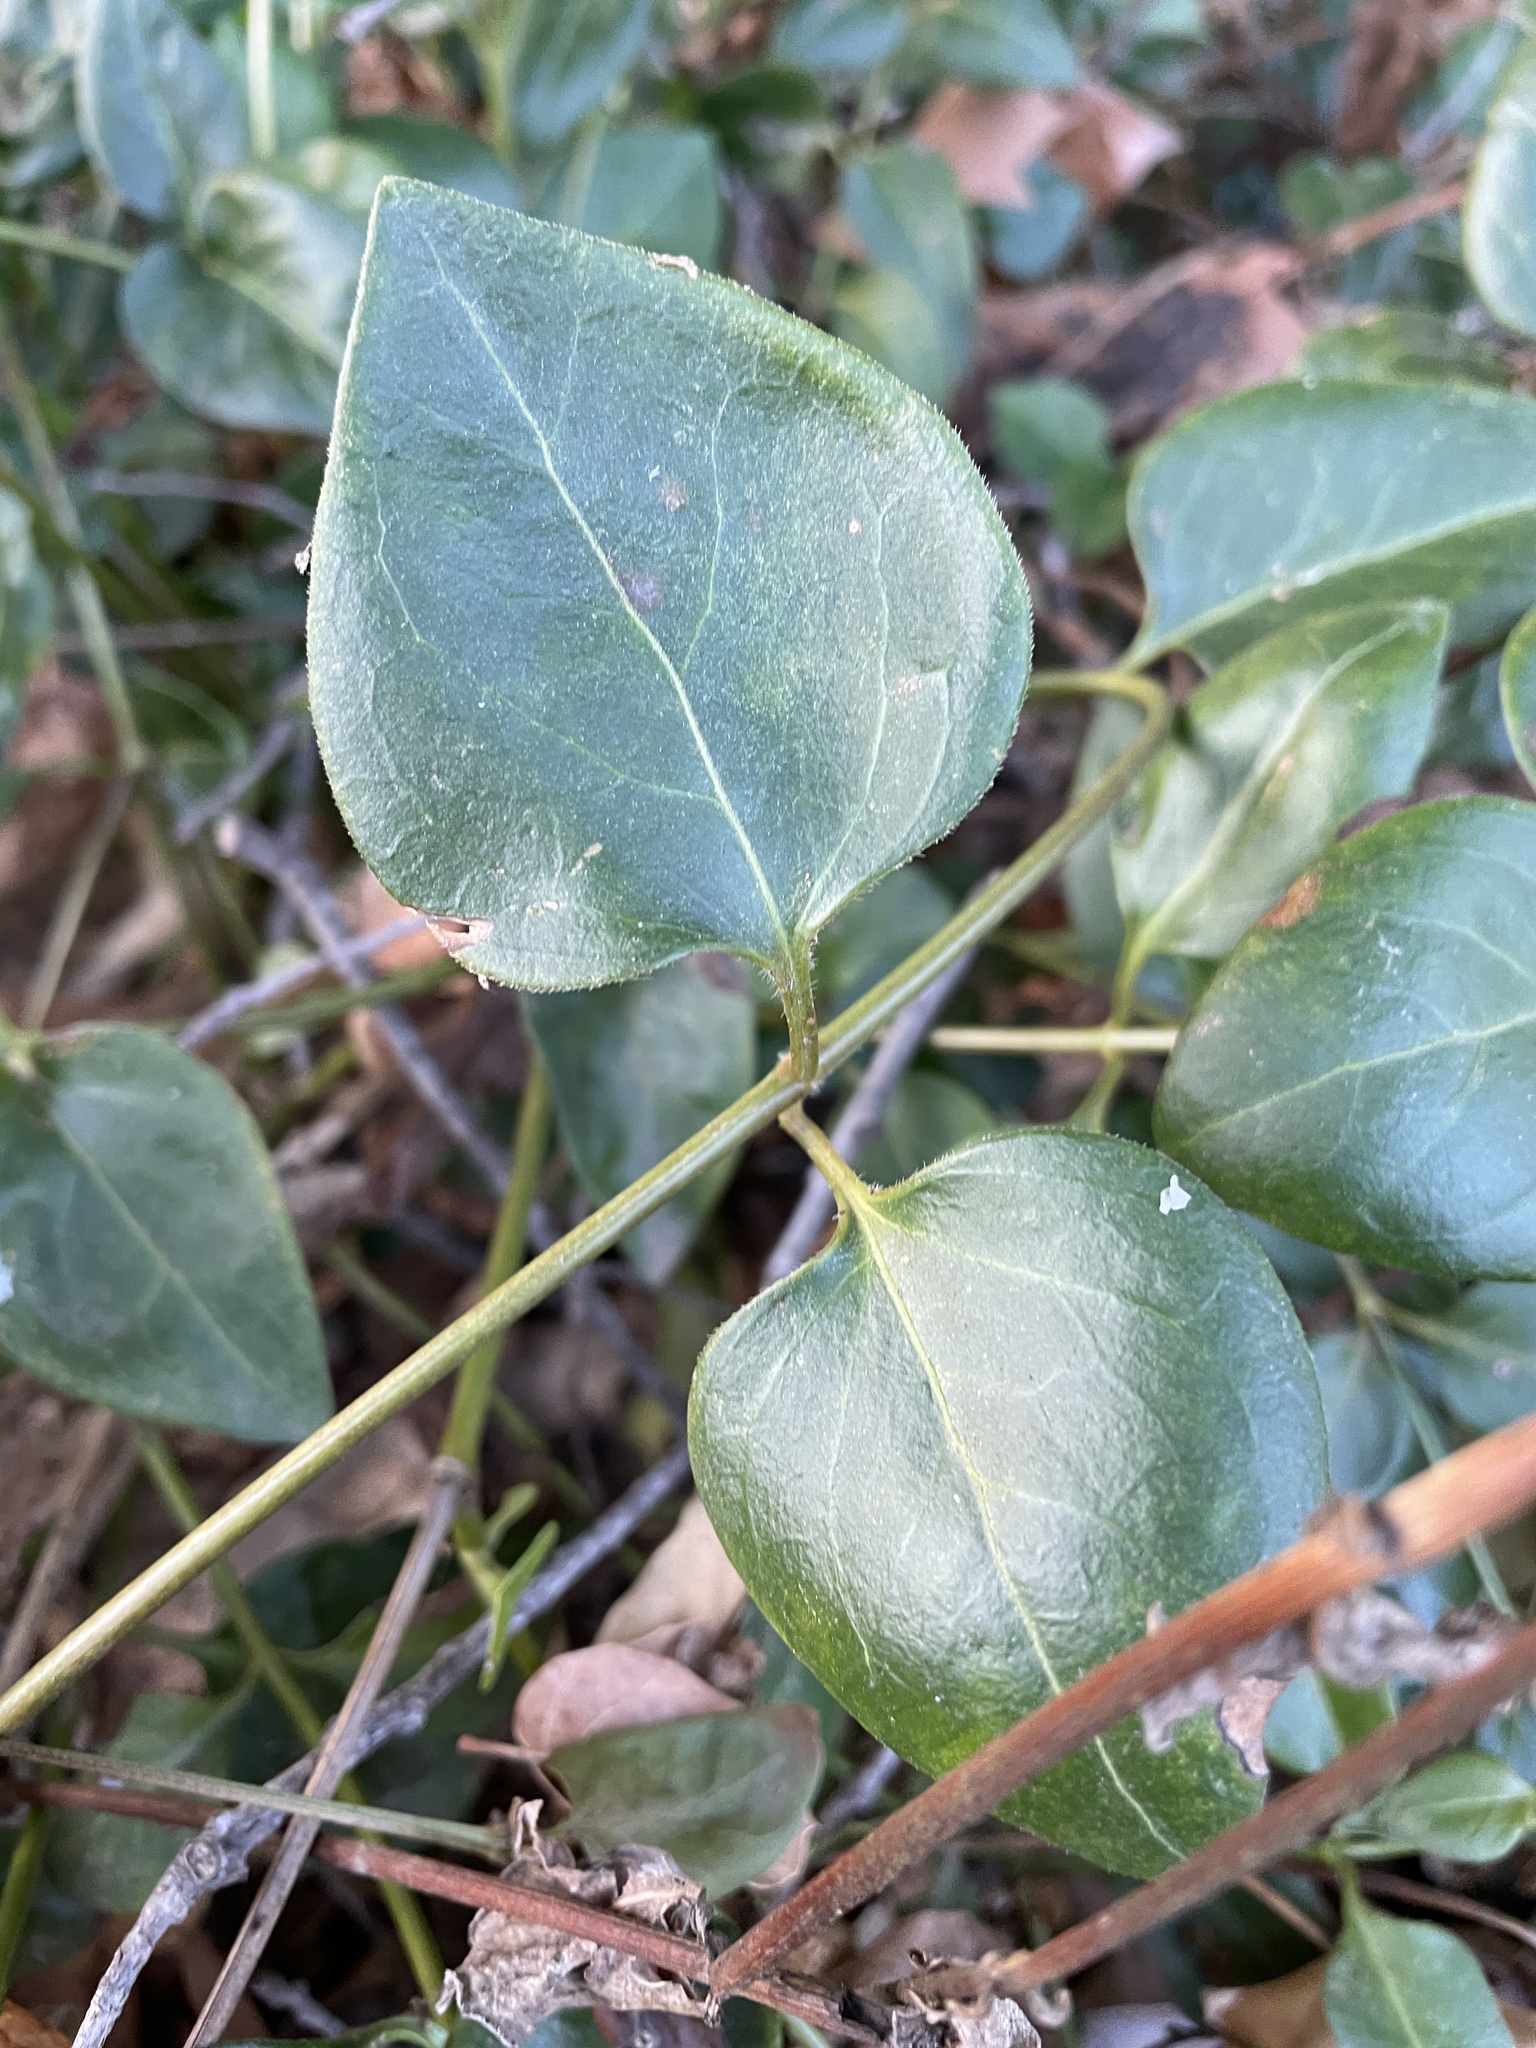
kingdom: Plantae
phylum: Tracheophyta
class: Magnoliopsida
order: Gentianales
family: Apocynaceae
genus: Vinca
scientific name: Vinca major
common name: Greater periwinkle
